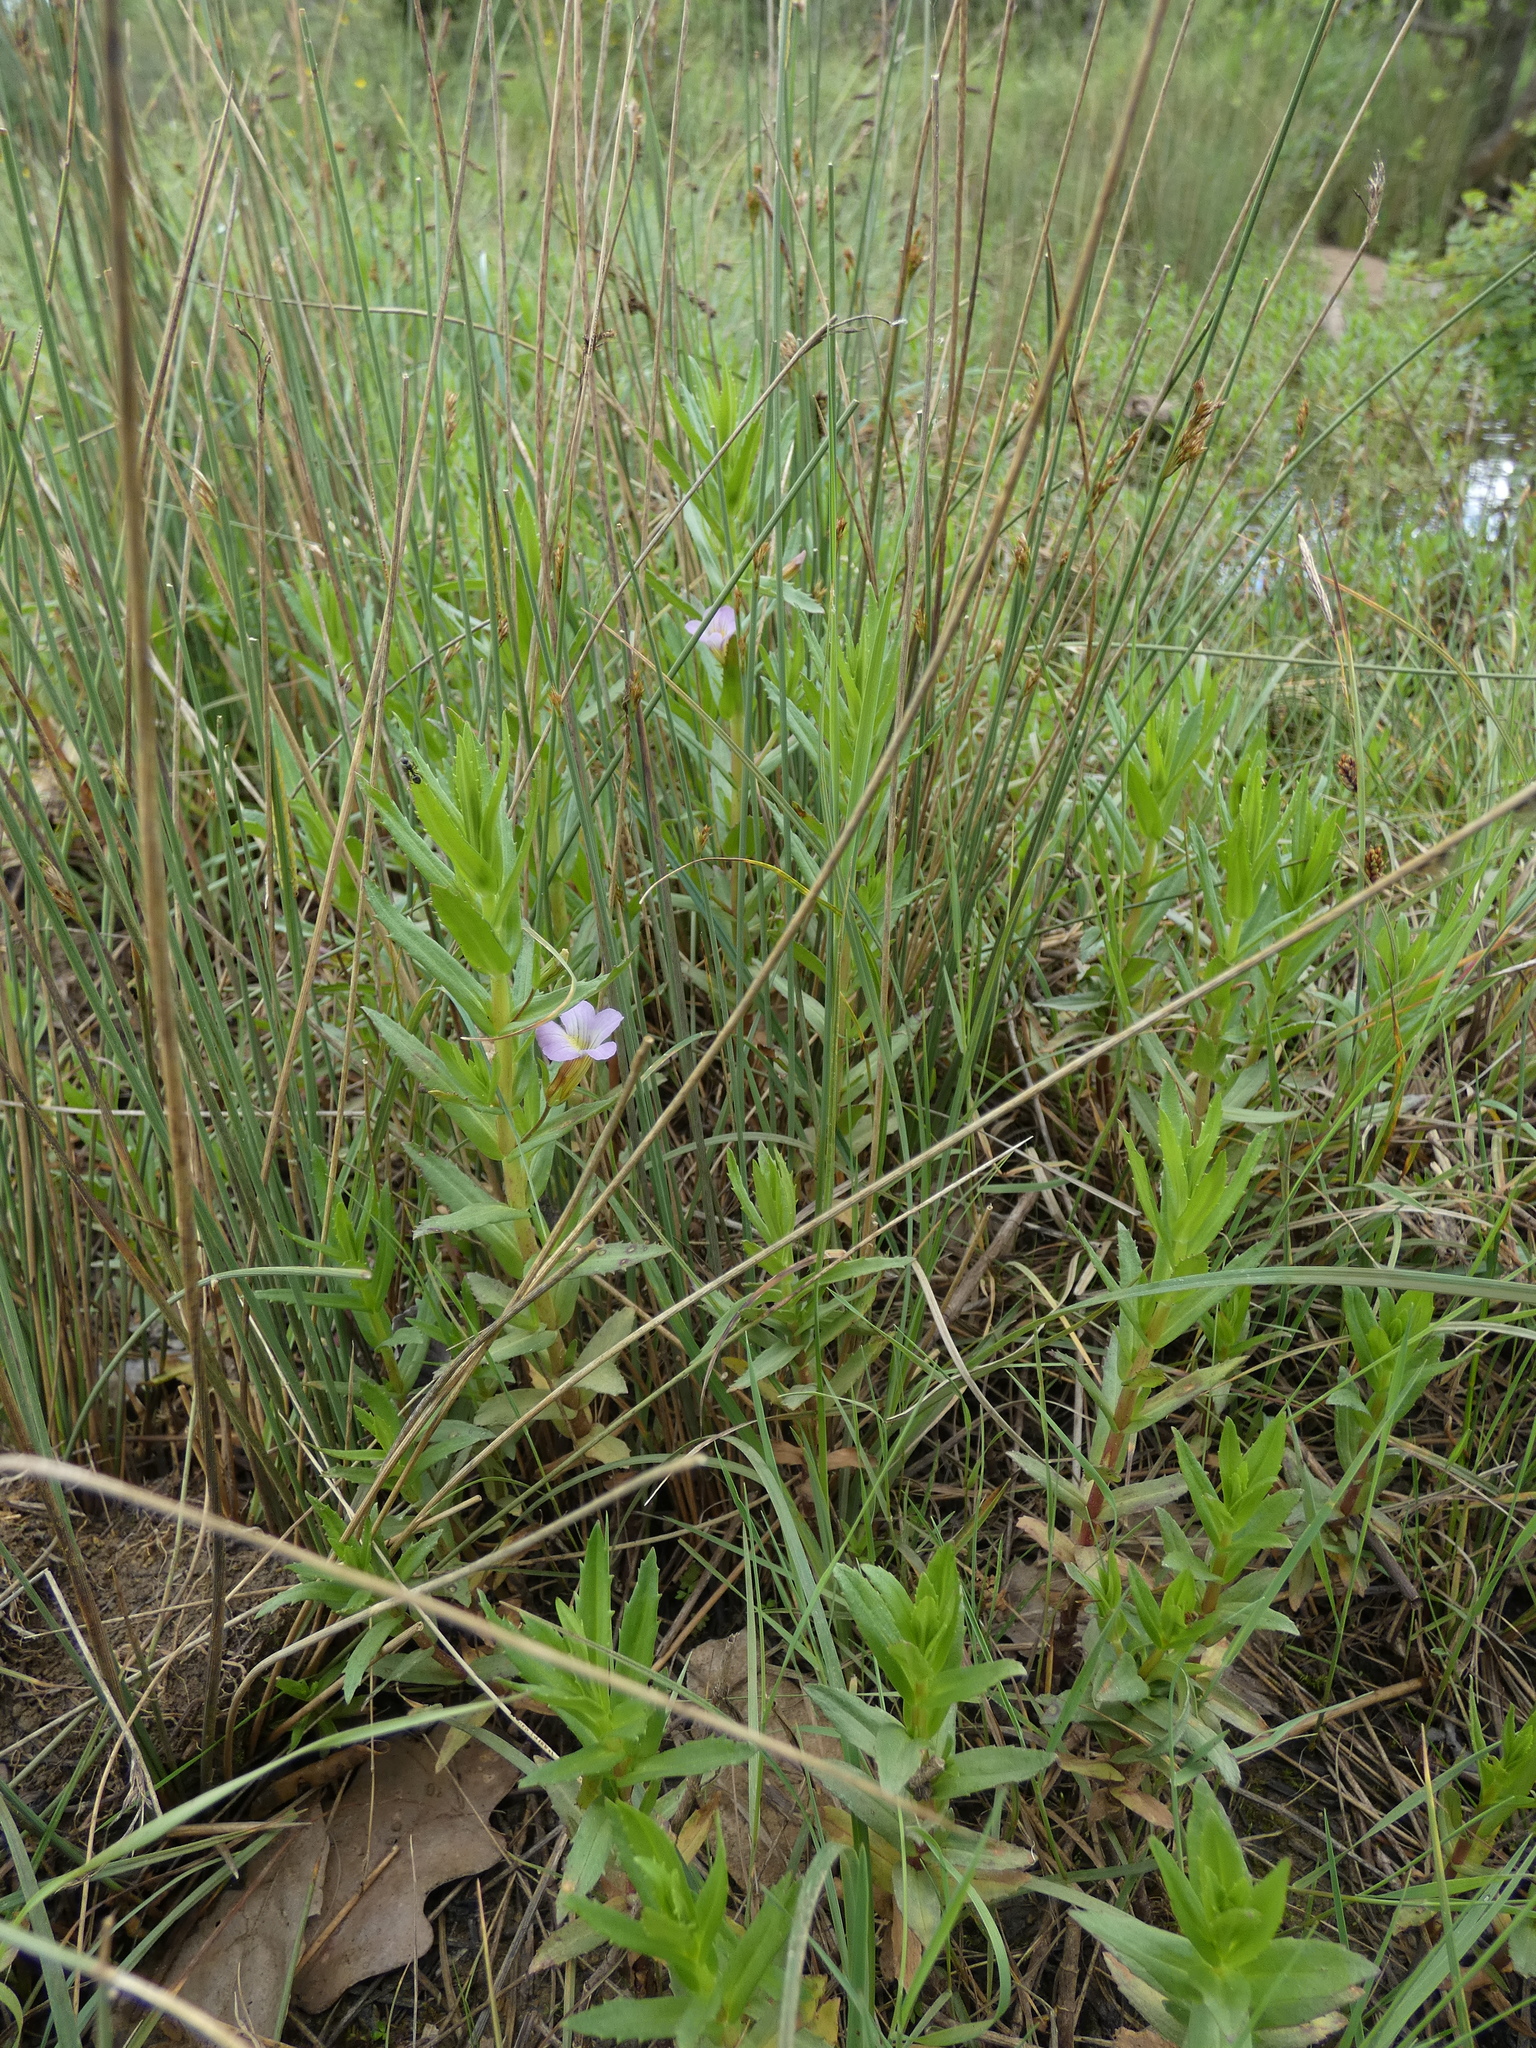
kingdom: Plantae
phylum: Tracheophyta
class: Magnoliopsida
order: Lamiales
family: Plantaginaceae
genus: Gratiola
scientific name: Gratiola officinalis
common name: Gratiola
